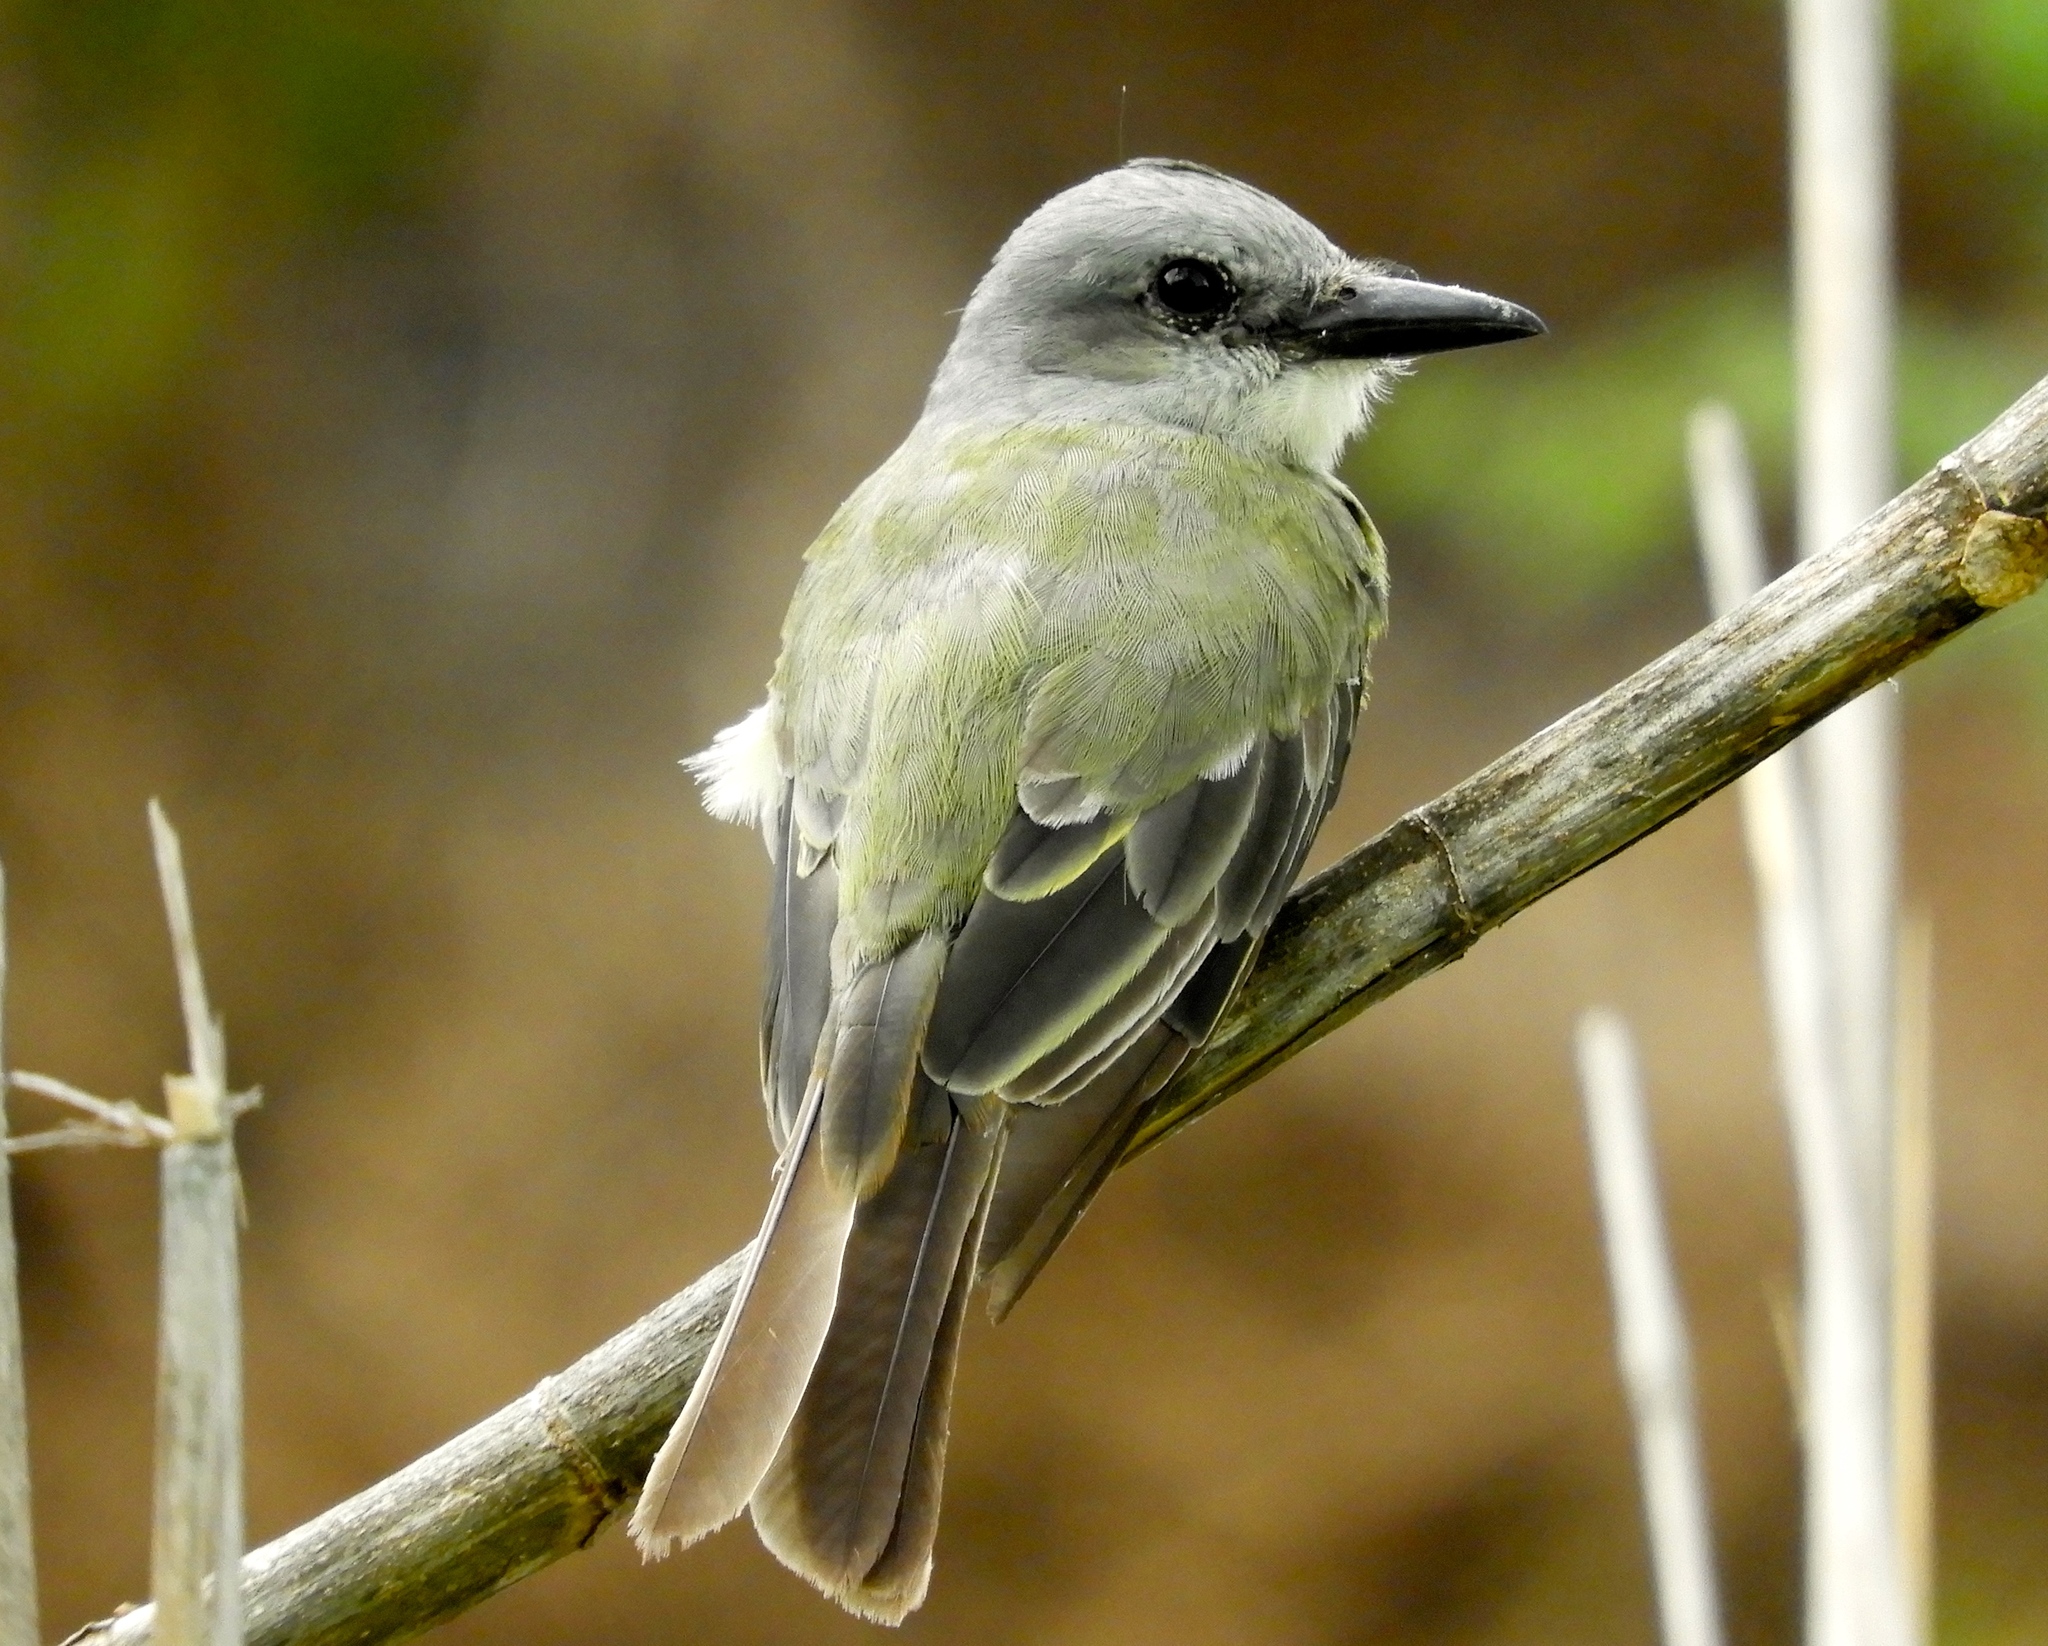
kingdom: Animalia
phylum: Chordata
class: Aves
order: Passeriformes
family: Tyrannidae
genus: Tyrannus
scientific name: Tyrannus melancholicus
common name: Tropical kingbird
